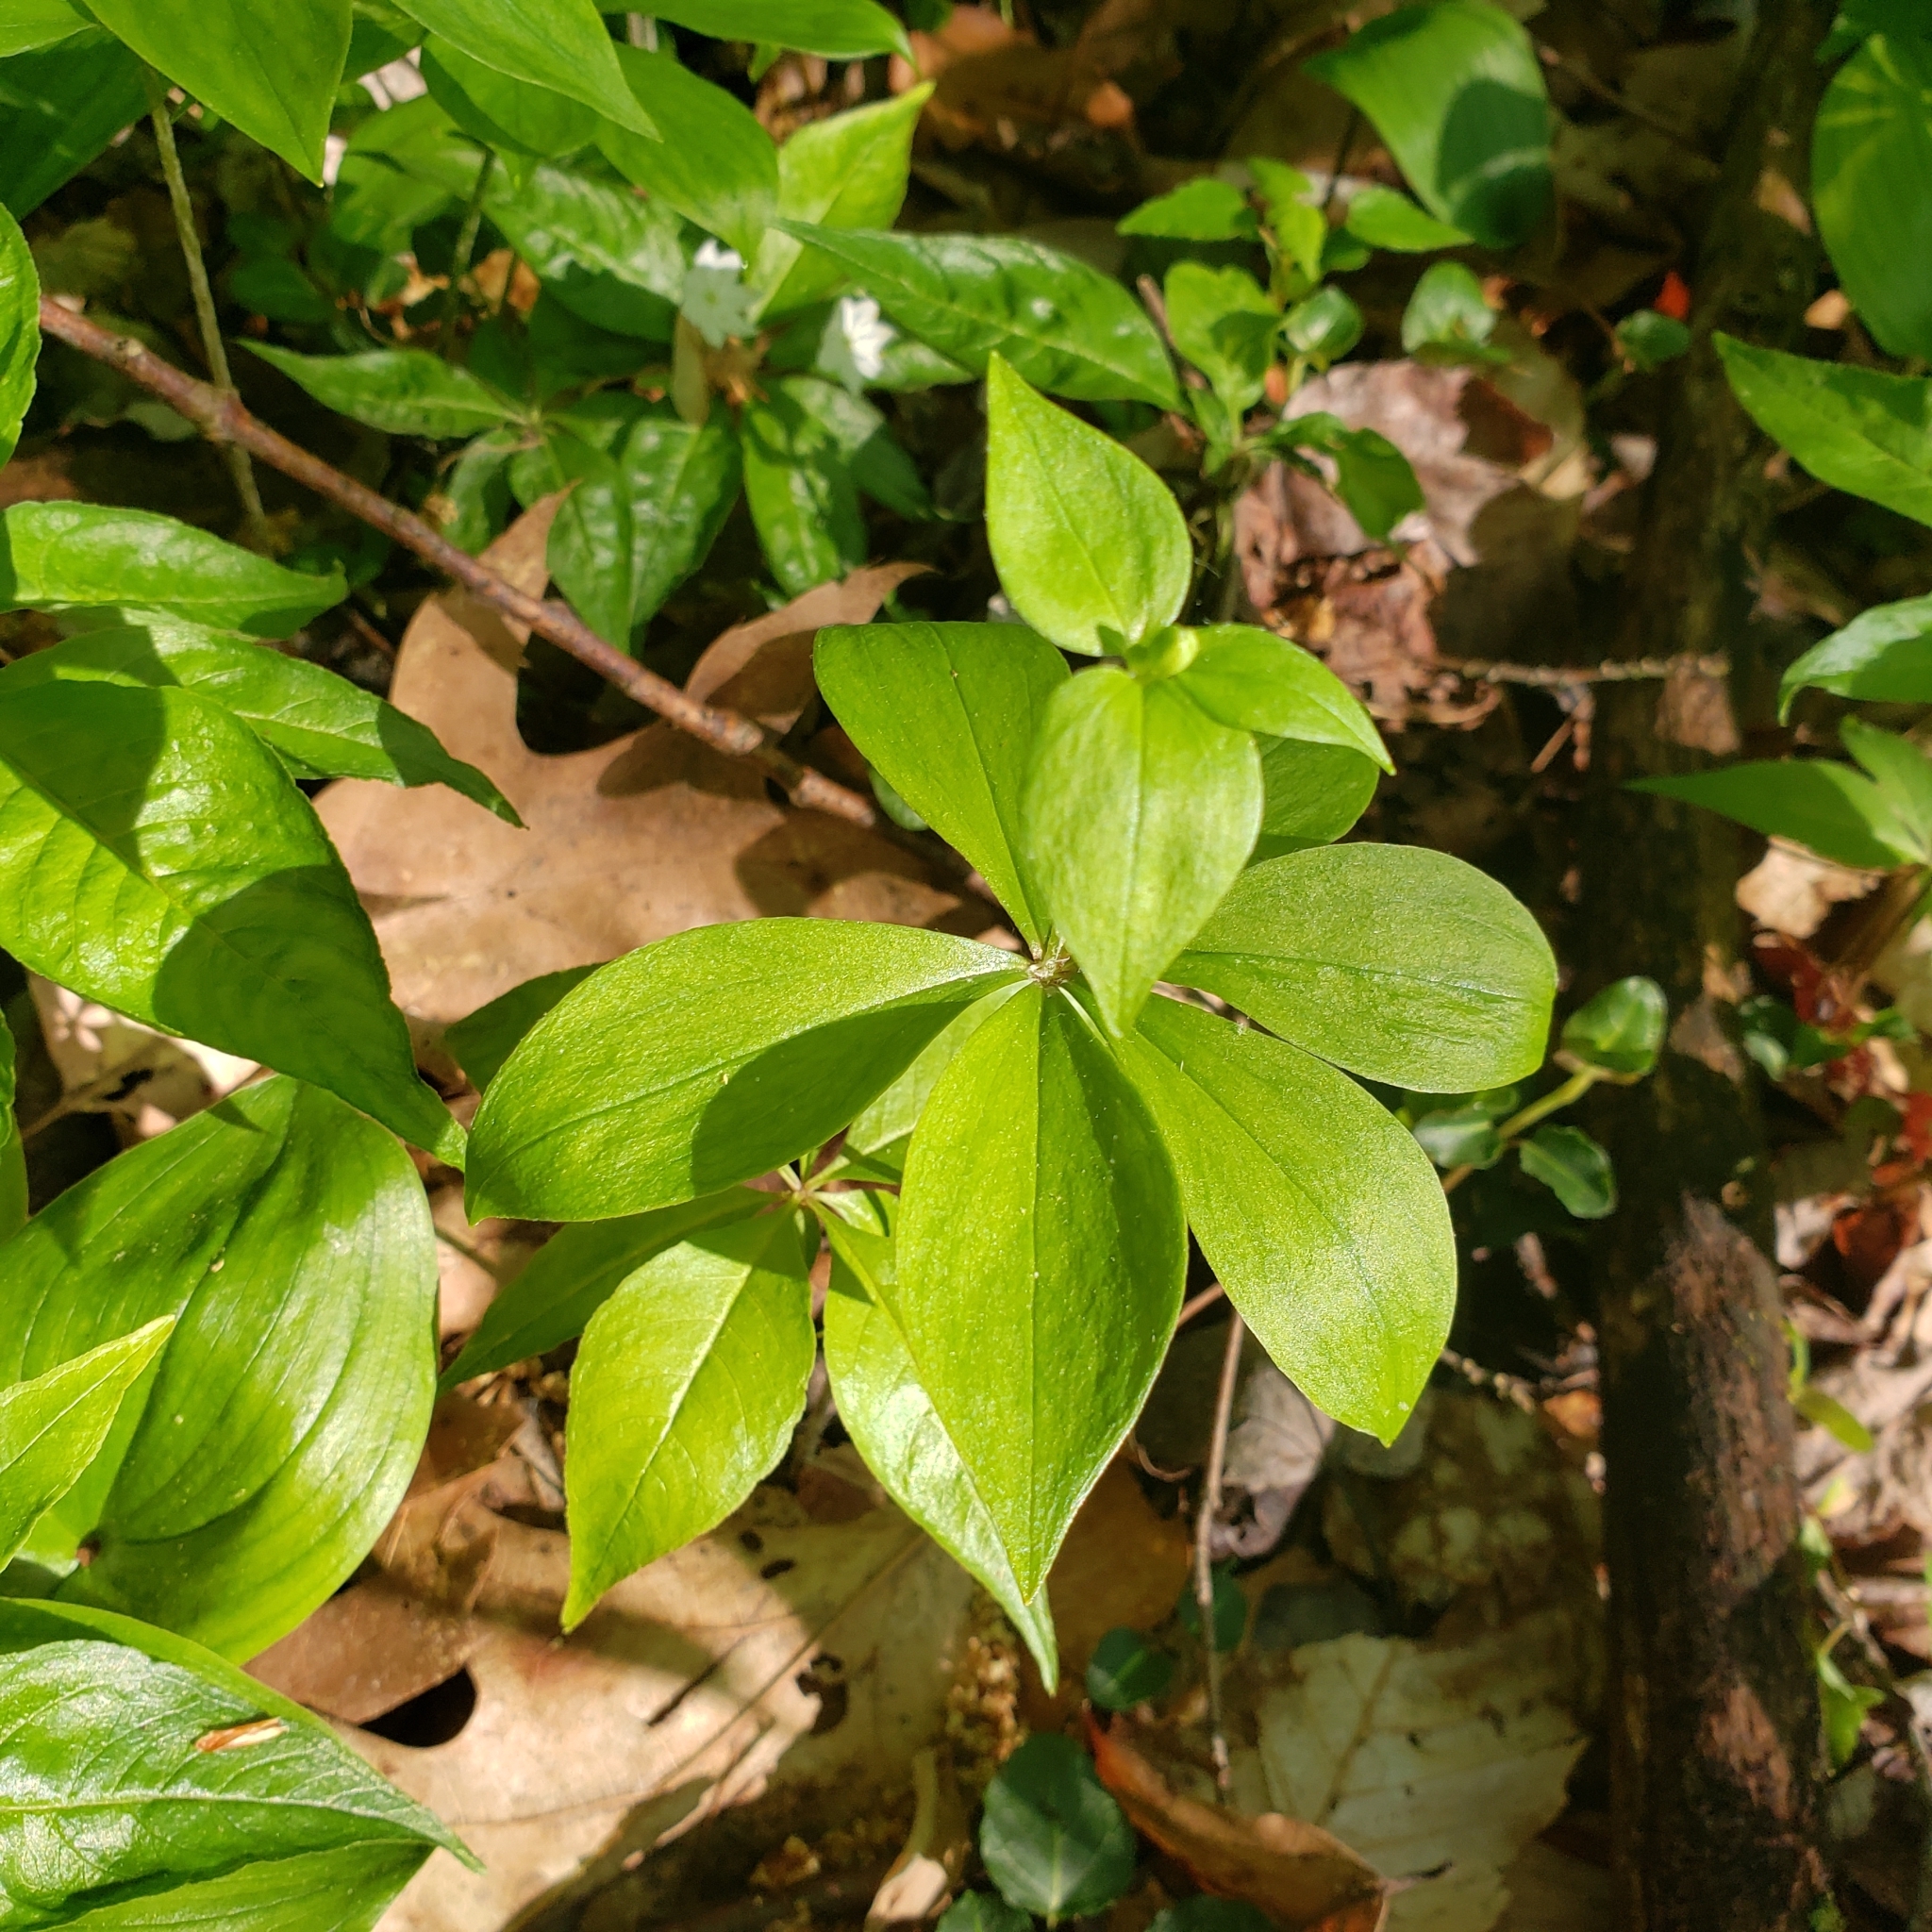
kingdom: Plantae
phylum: Tracheophyta
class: Liliopsida
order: Liliales
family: Liliaceae
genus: Medeola
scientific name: Medeola virginiana
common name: Indian cucumber-root
